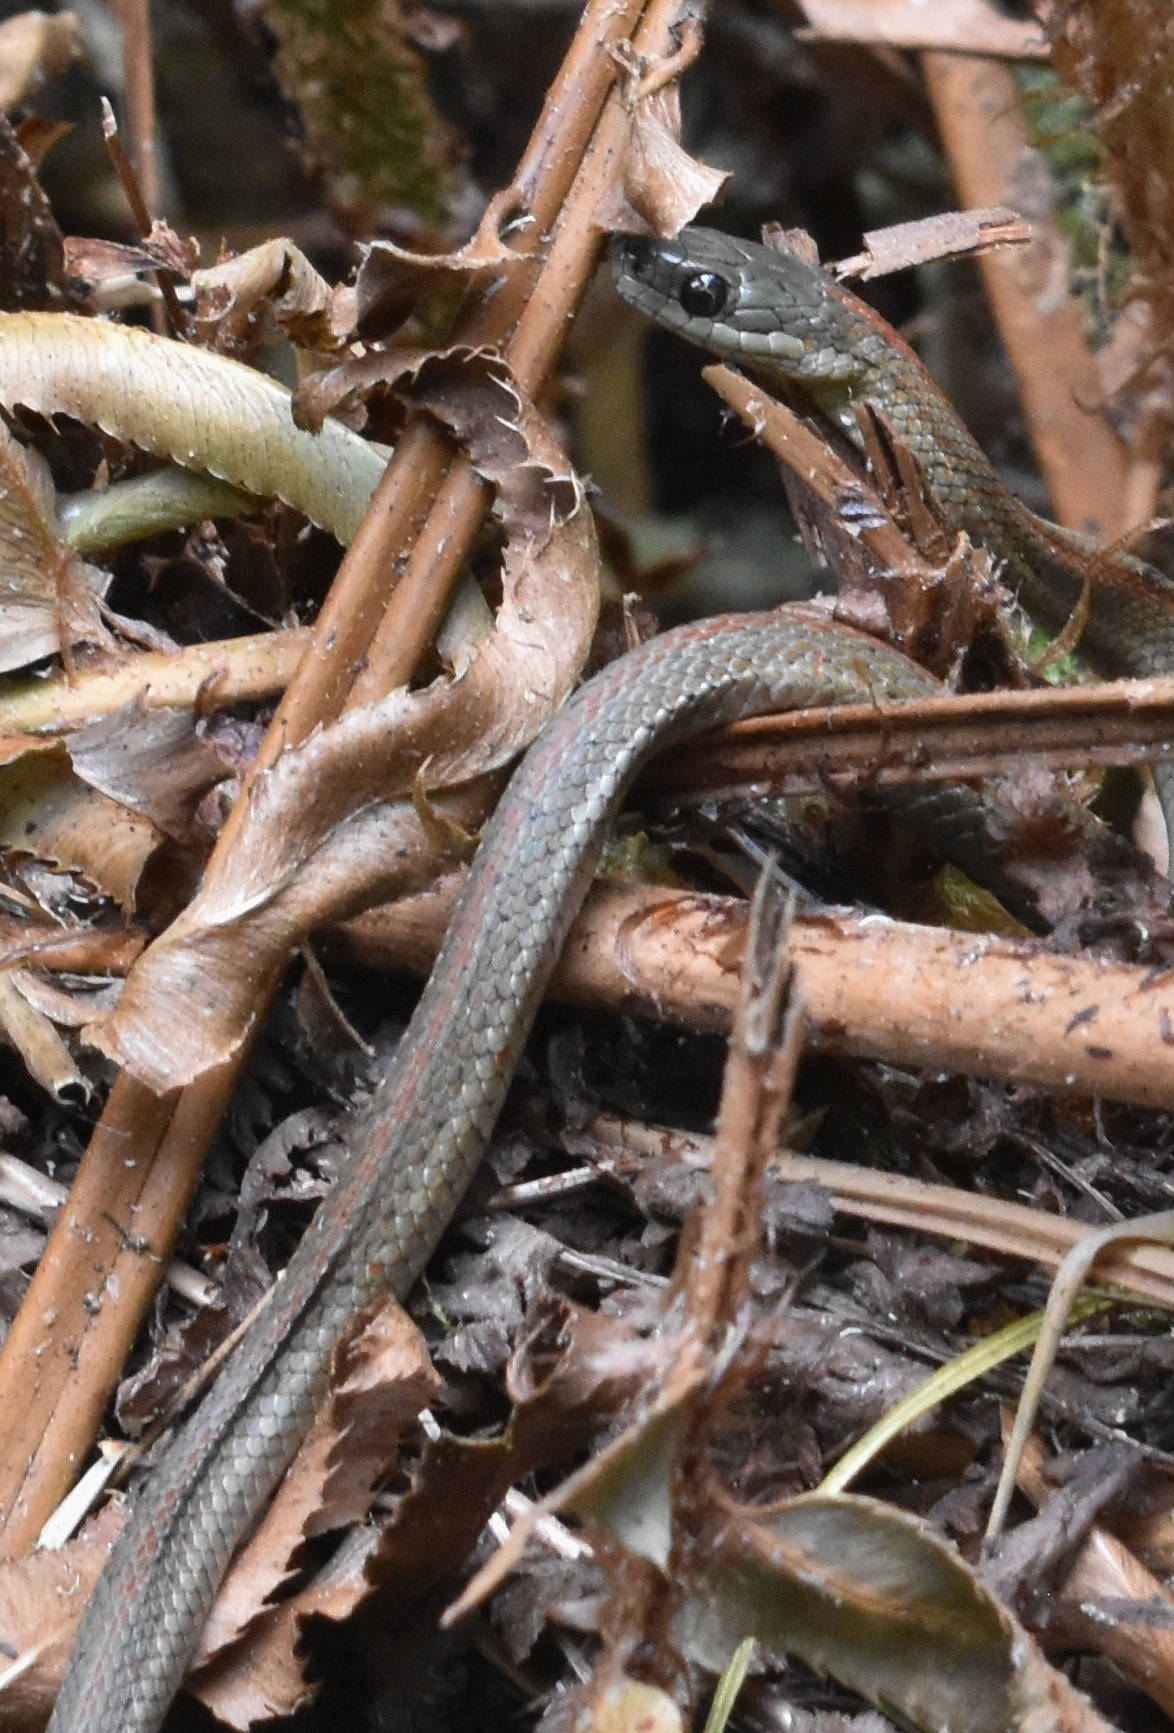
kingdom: Animalia
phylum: Chordata
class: Squamata
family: Colubridae
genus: Thamnophis
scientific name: Thamnophis ordinoides
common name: Northwestern garter snake
